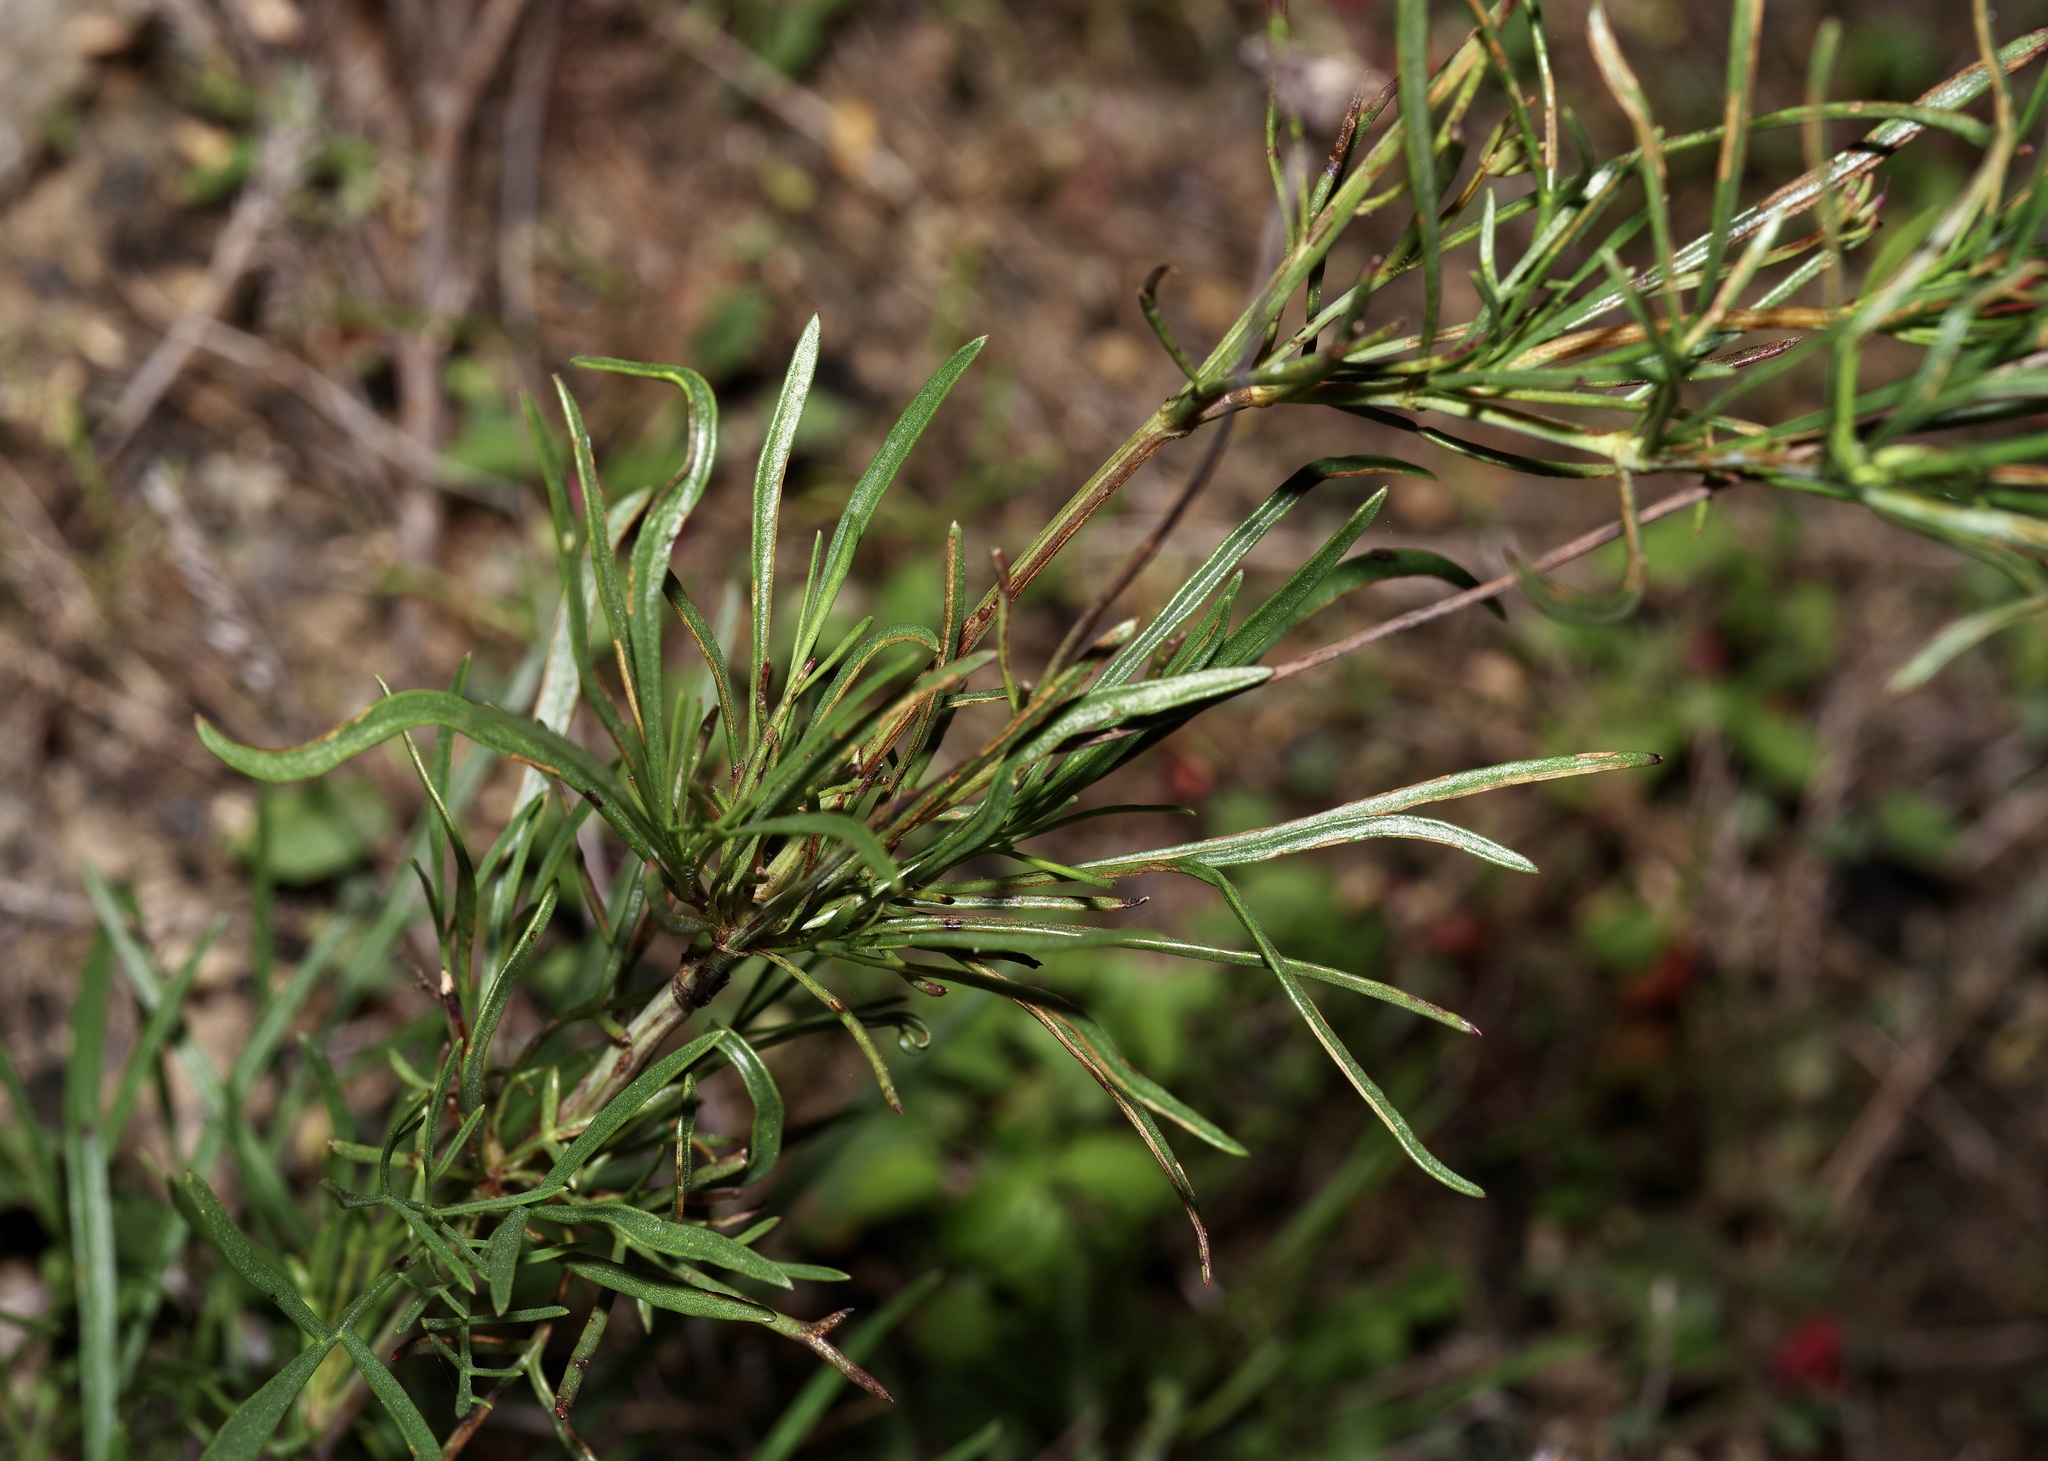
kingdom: Plantae
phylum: Tracheophyta
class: Magnoliopsida
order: Asterales
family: Asteraceae
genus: Thelesperma
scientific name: Thelesperma filifolium
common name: Stiff greenthread
